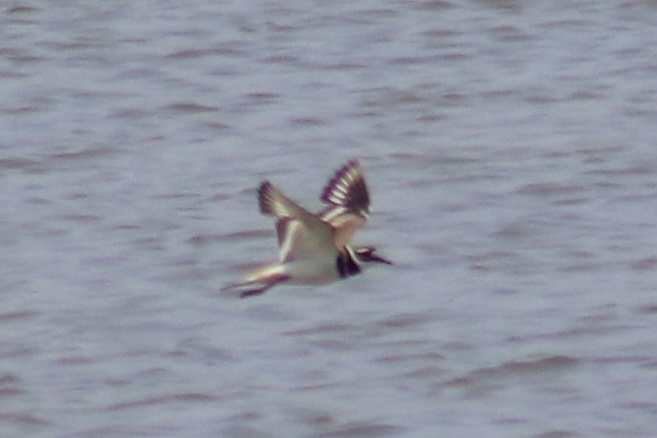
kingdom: Animalia
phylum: Chordata
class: Aves
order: Charadriiformes
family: Charadriidae
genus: Charadrius
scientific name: Charadrius vociferus
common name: Killdeer
